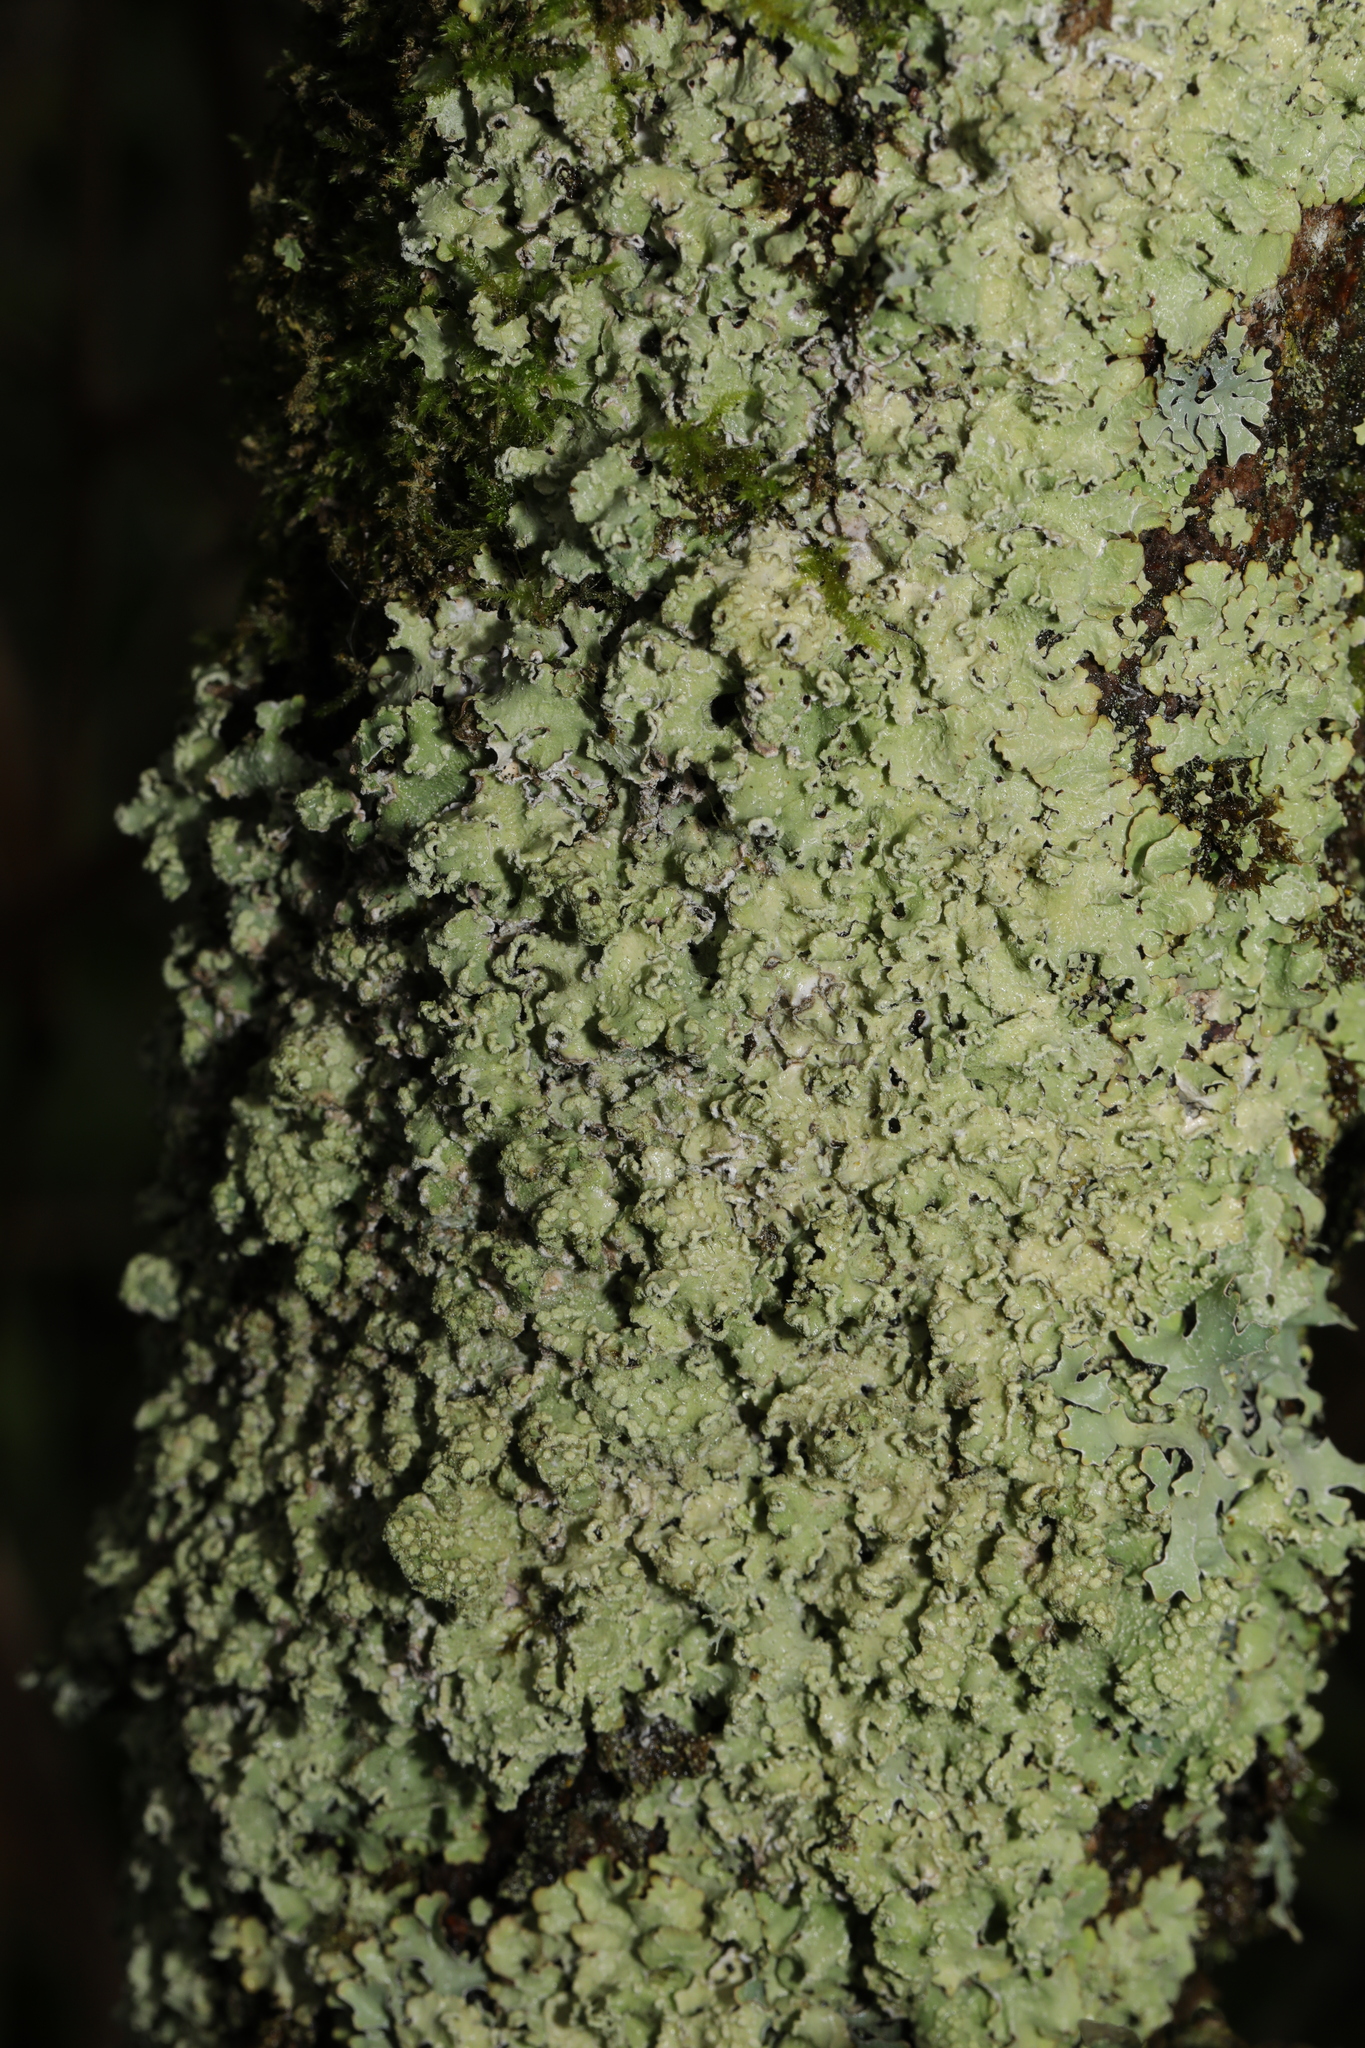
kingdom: Fungi
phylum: Ascomycota
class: Lecanoromycetes
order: Lecanorales
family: Parmeliaceae
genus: Punctelia
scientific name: Punctelia jeckeri
